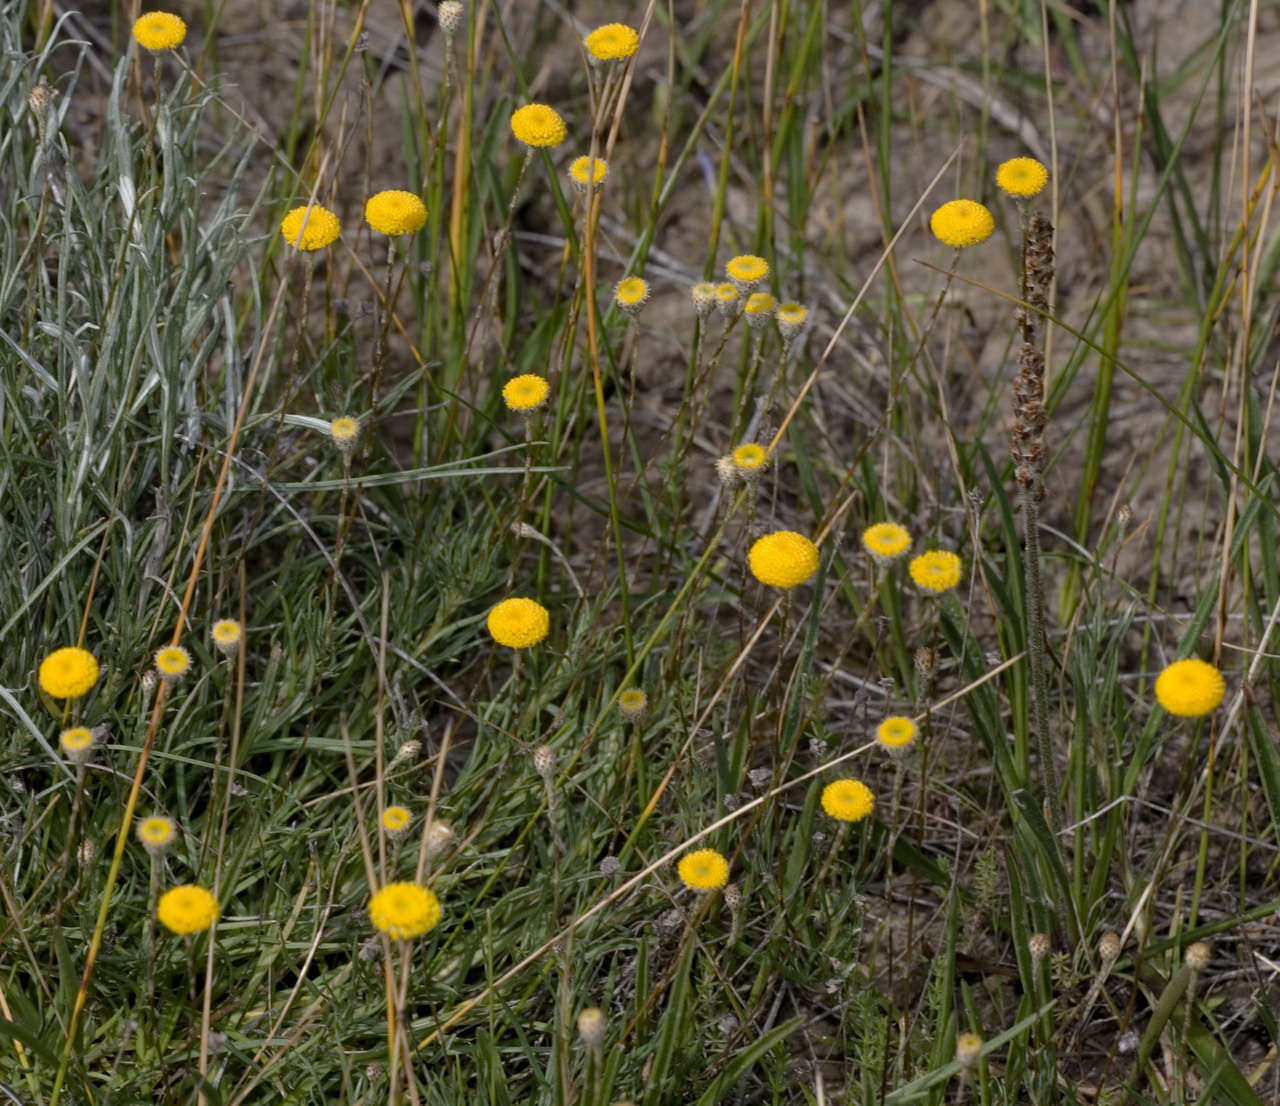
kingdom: Plantae
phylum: Tracheophyta
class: Magnoliopsida
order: Asterales
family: Asteraceae
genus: Leptorhynchos
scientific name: Leptorhynchos squamatus
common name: Scaly-buttons
